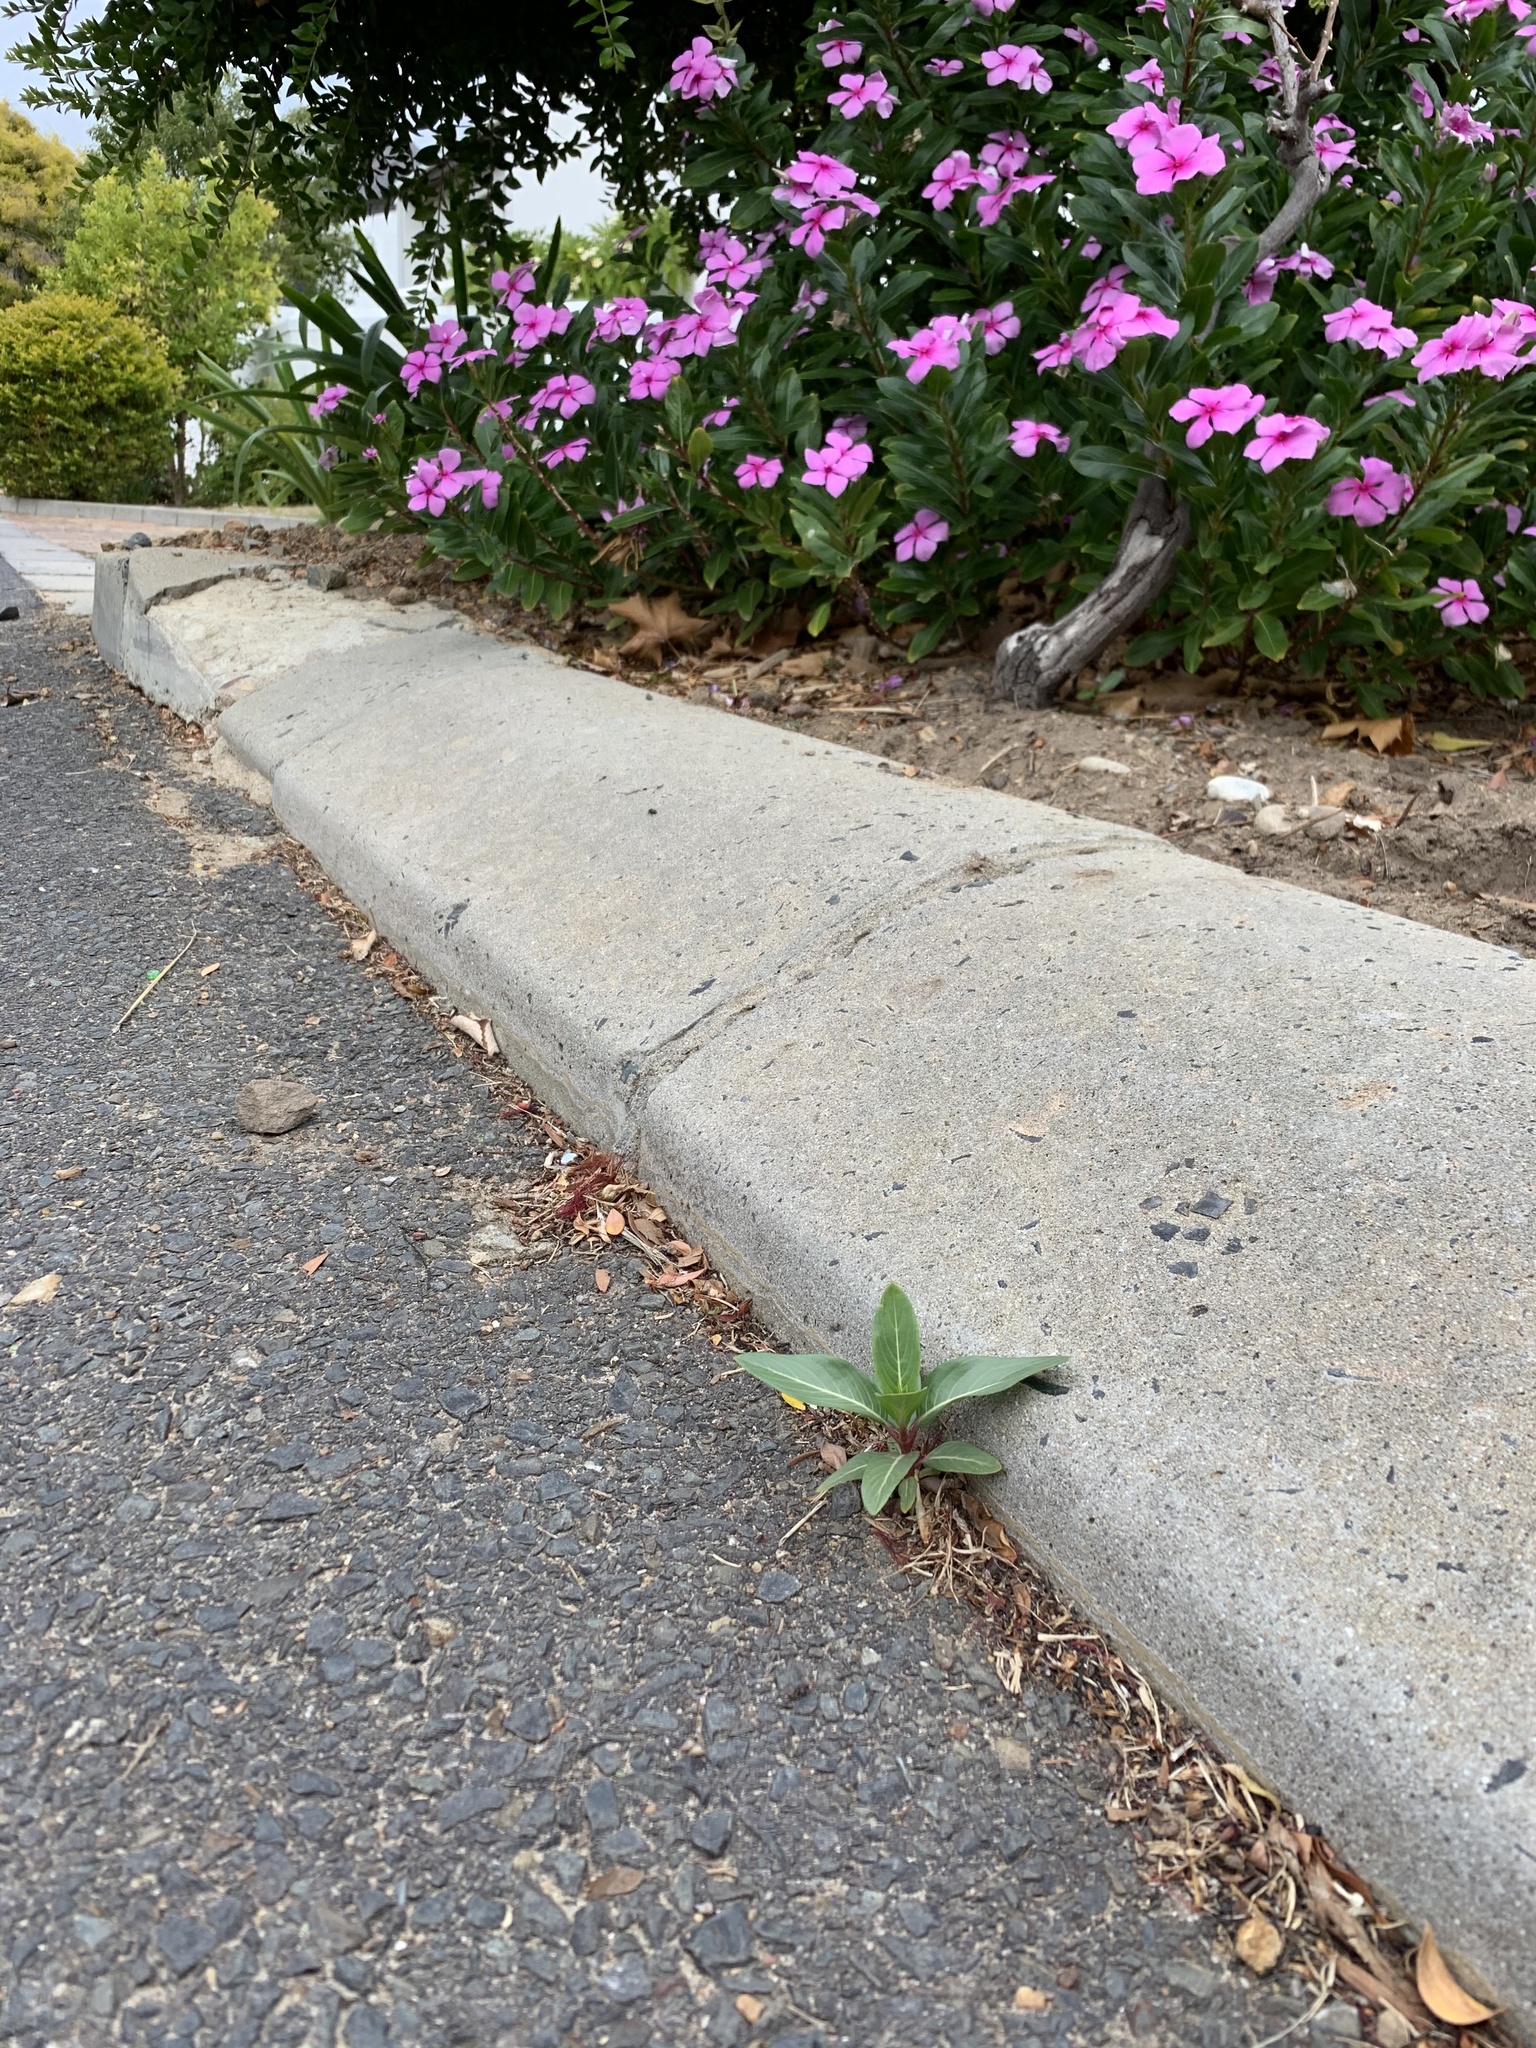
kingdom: Plantae
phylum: Tracheophyta
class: Magnoliopsida
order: Gentianales
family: Apocynaceae
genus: Catharanthus
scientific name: Catharanthus roseus
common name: Madagascar periwinkle
